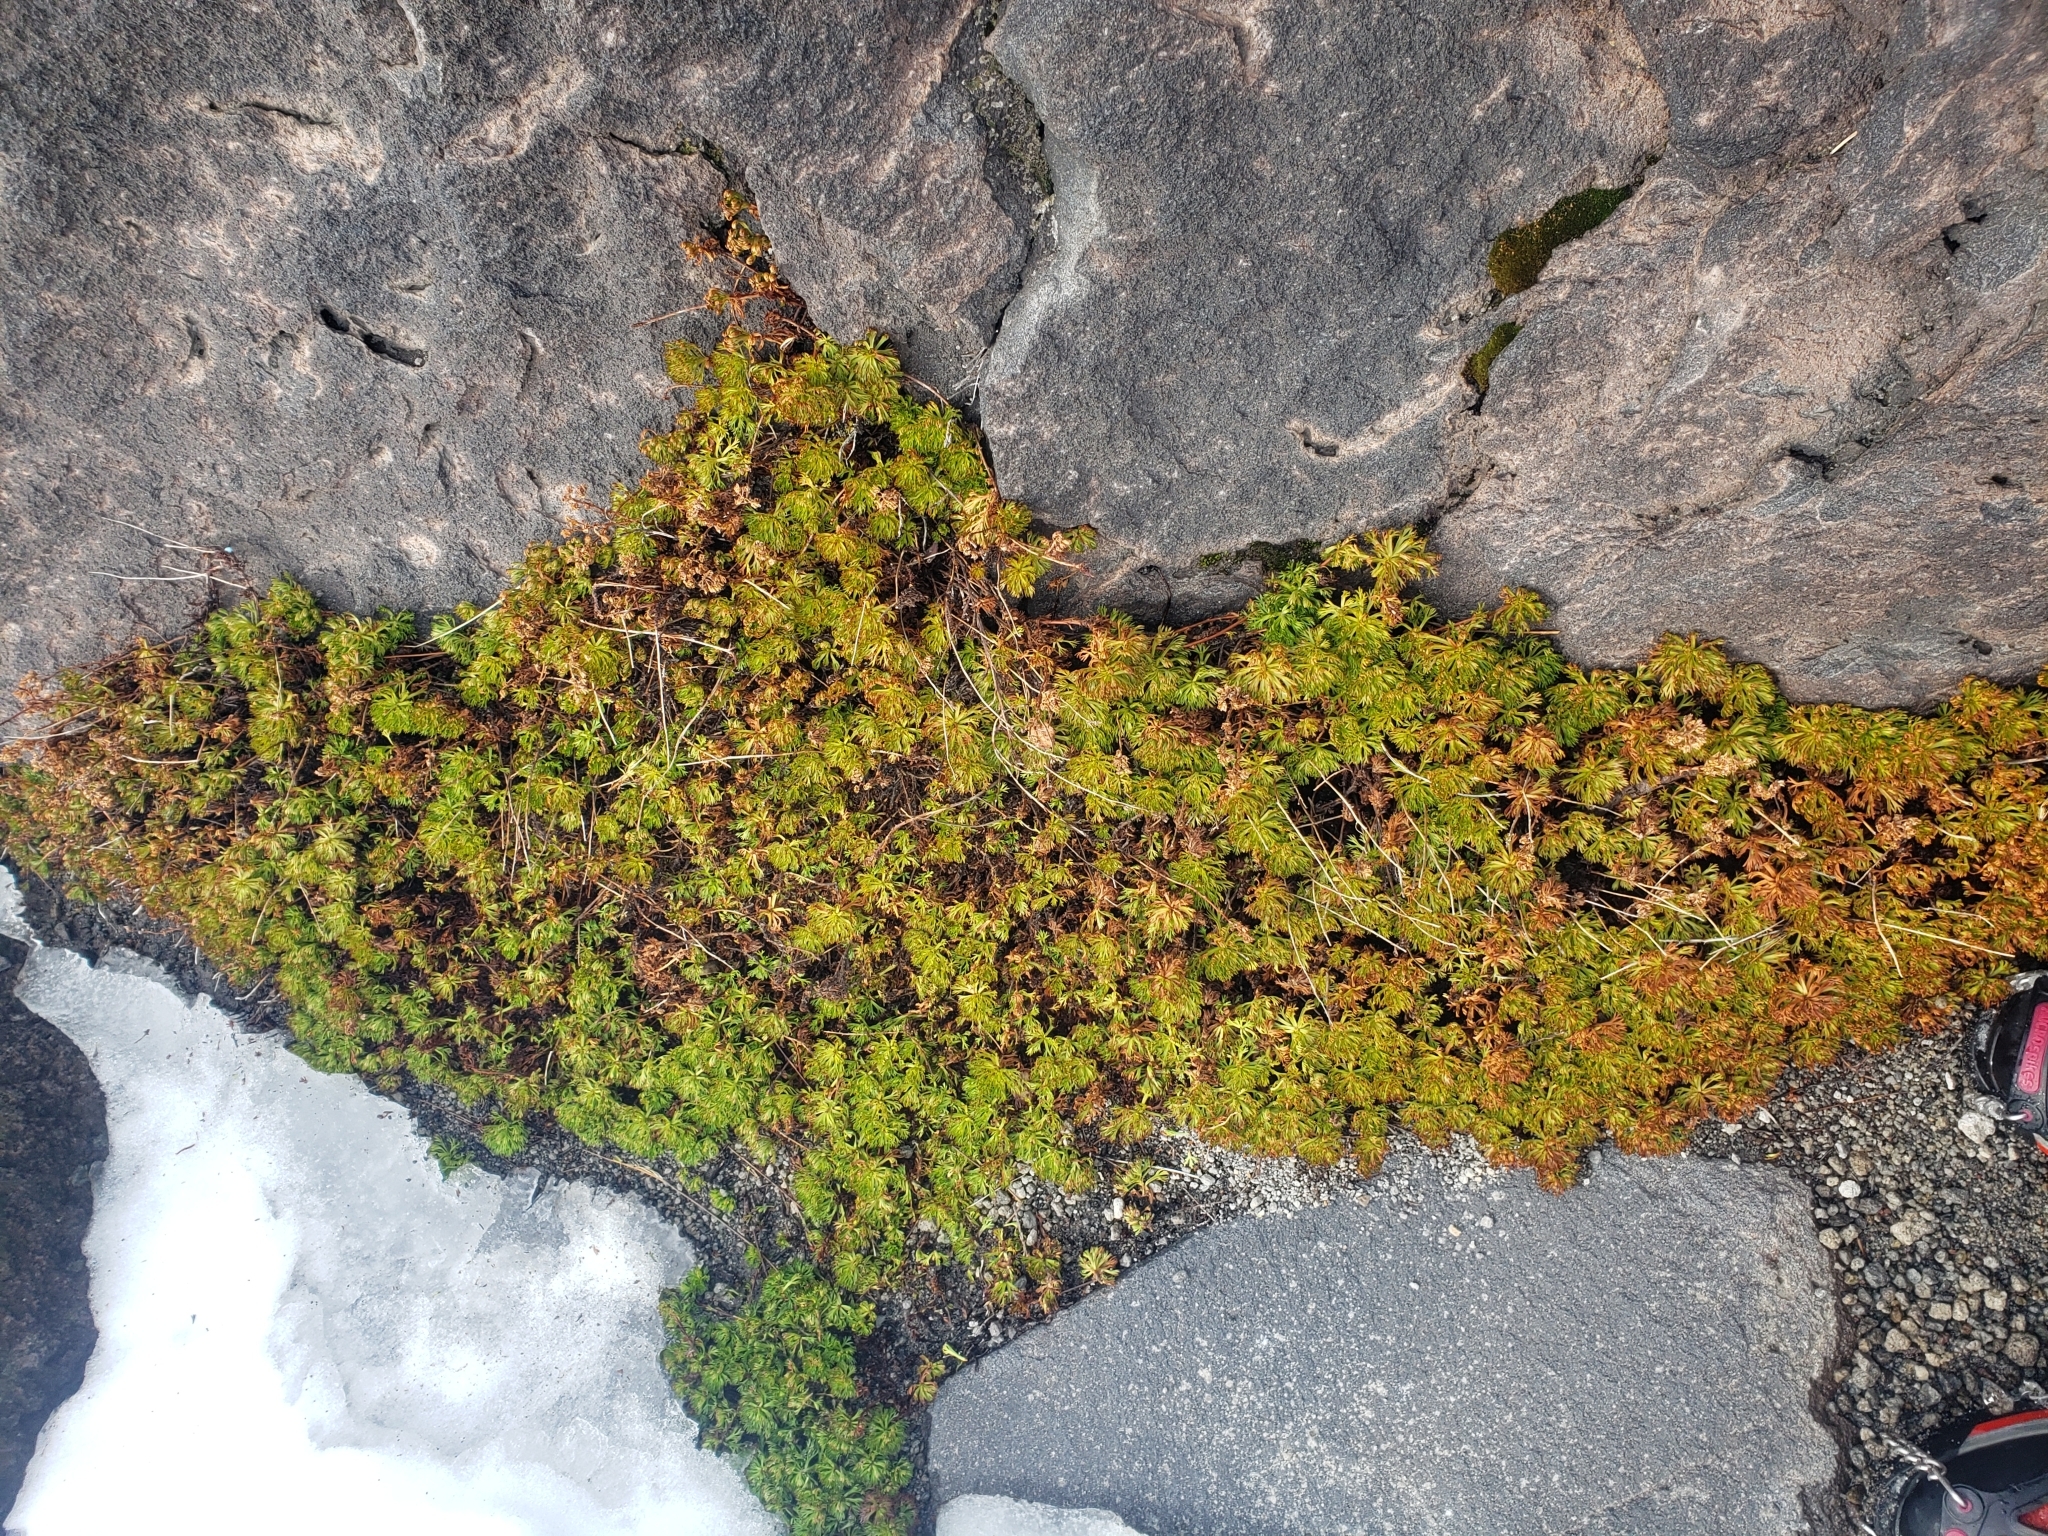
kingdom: Plantae
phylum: Tracheophyta
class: Magnoliopsida
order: Rosales
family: Rosaceae
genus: Luetkea
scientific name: Luetkea pectinata
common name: Partridgefoot
